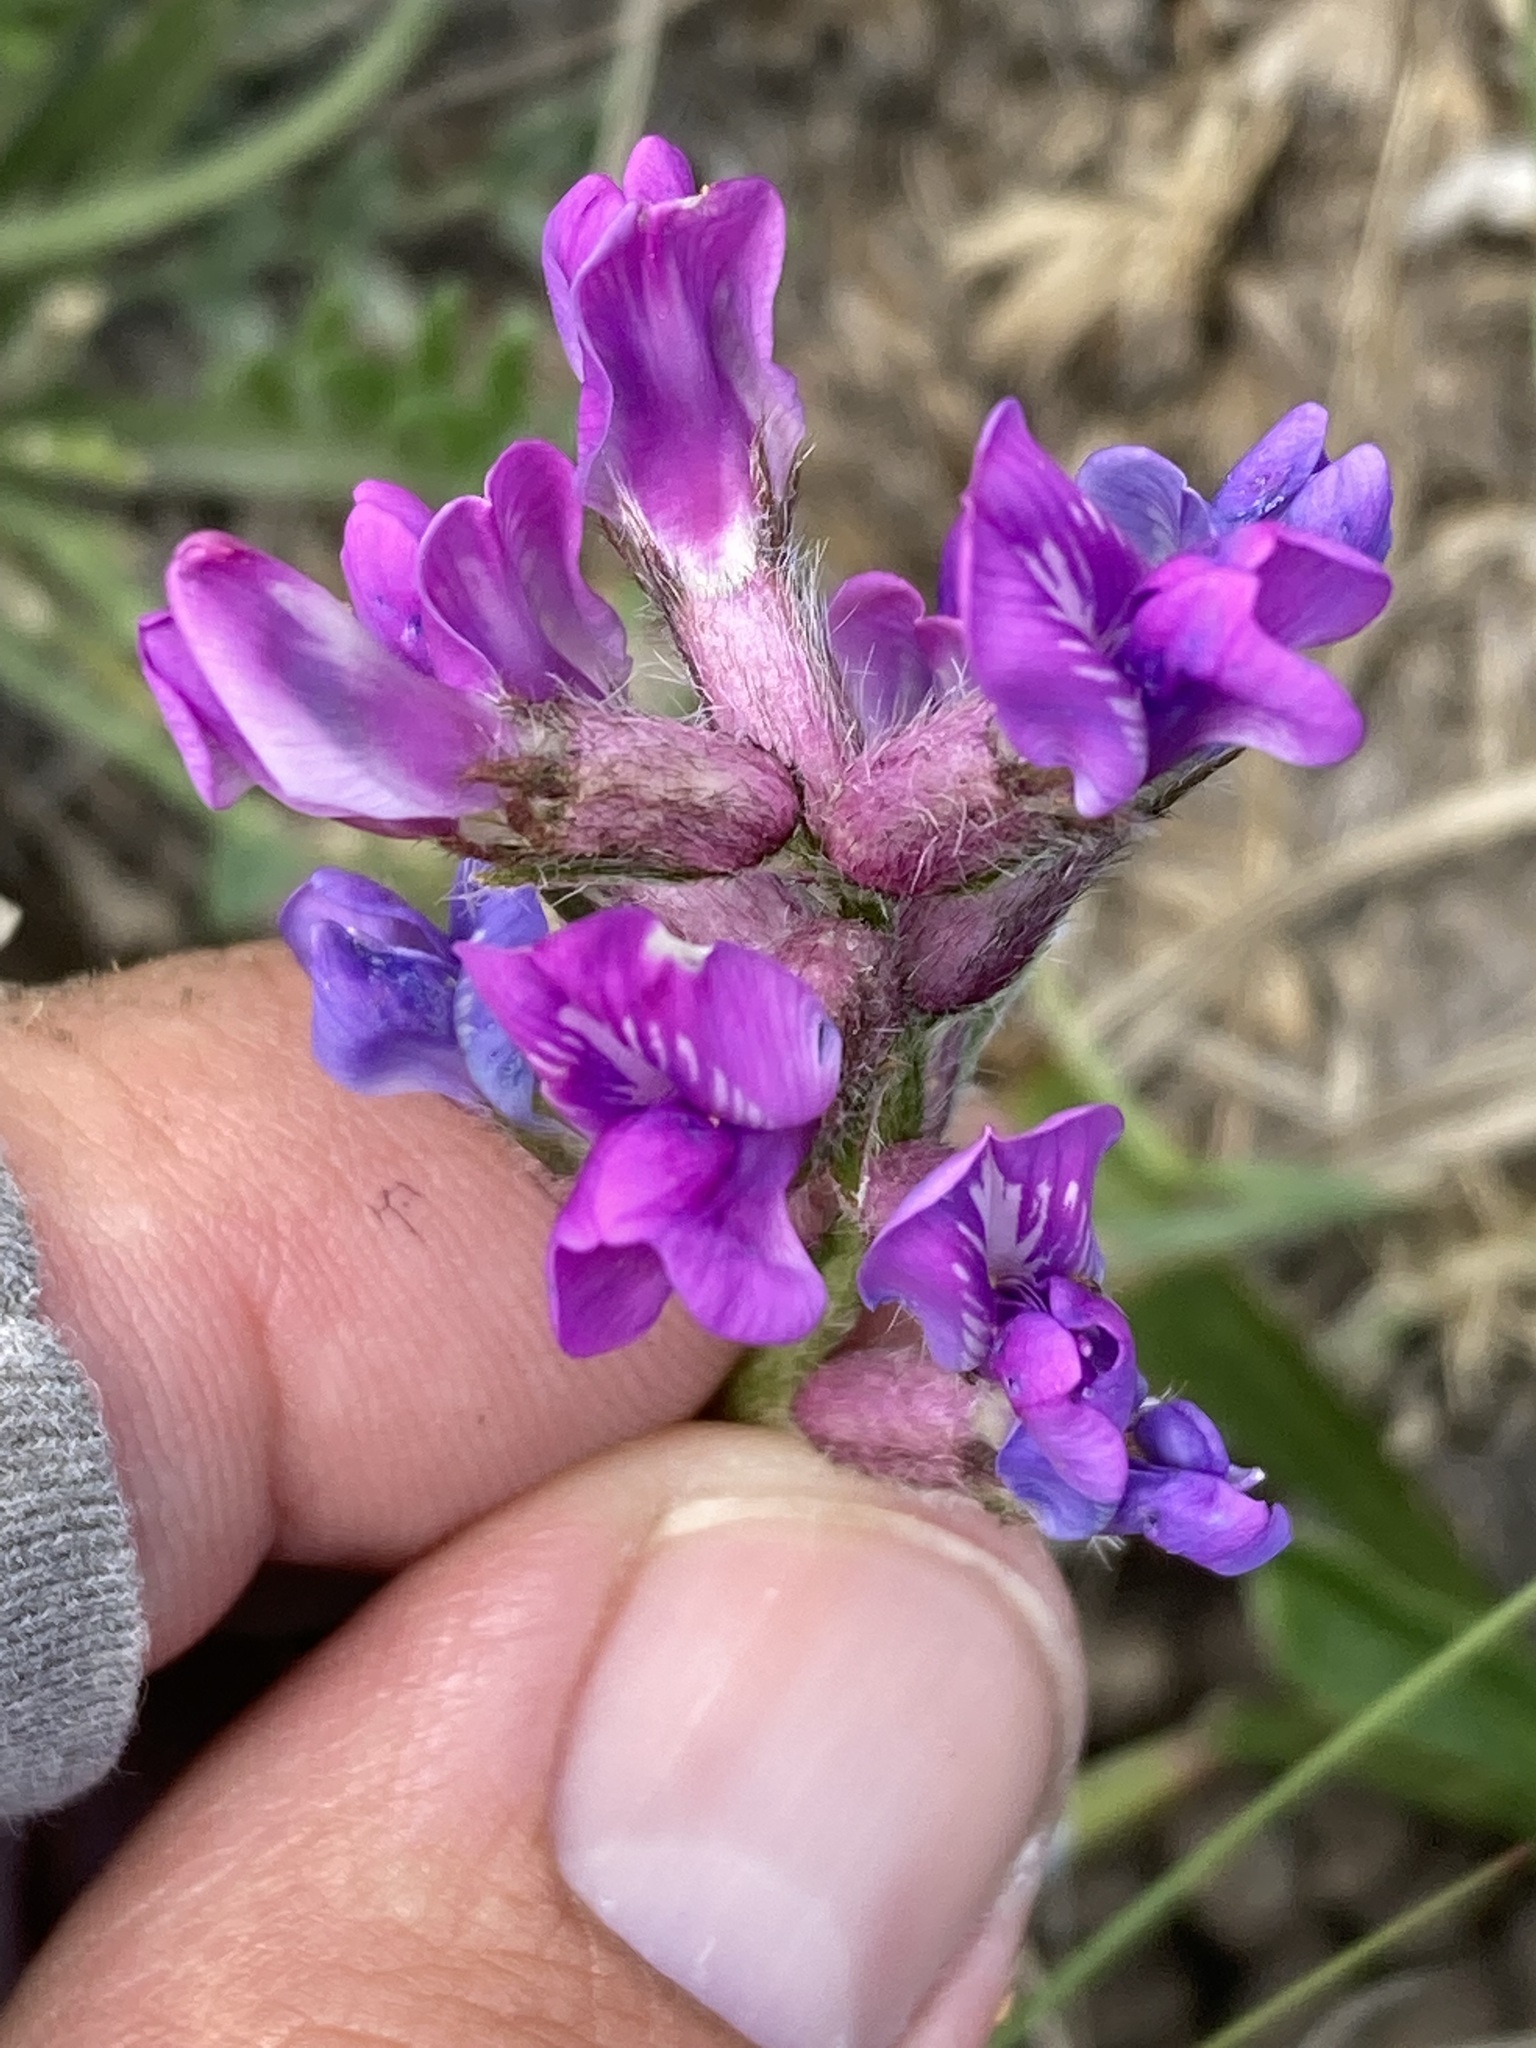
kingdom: Plantae
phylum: Tracheophyta
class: Magnoliopsida
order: Fabales
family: Fabaceae
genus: Oxytropis
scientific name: Oxytropis lambertii
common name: Purple locoweed
